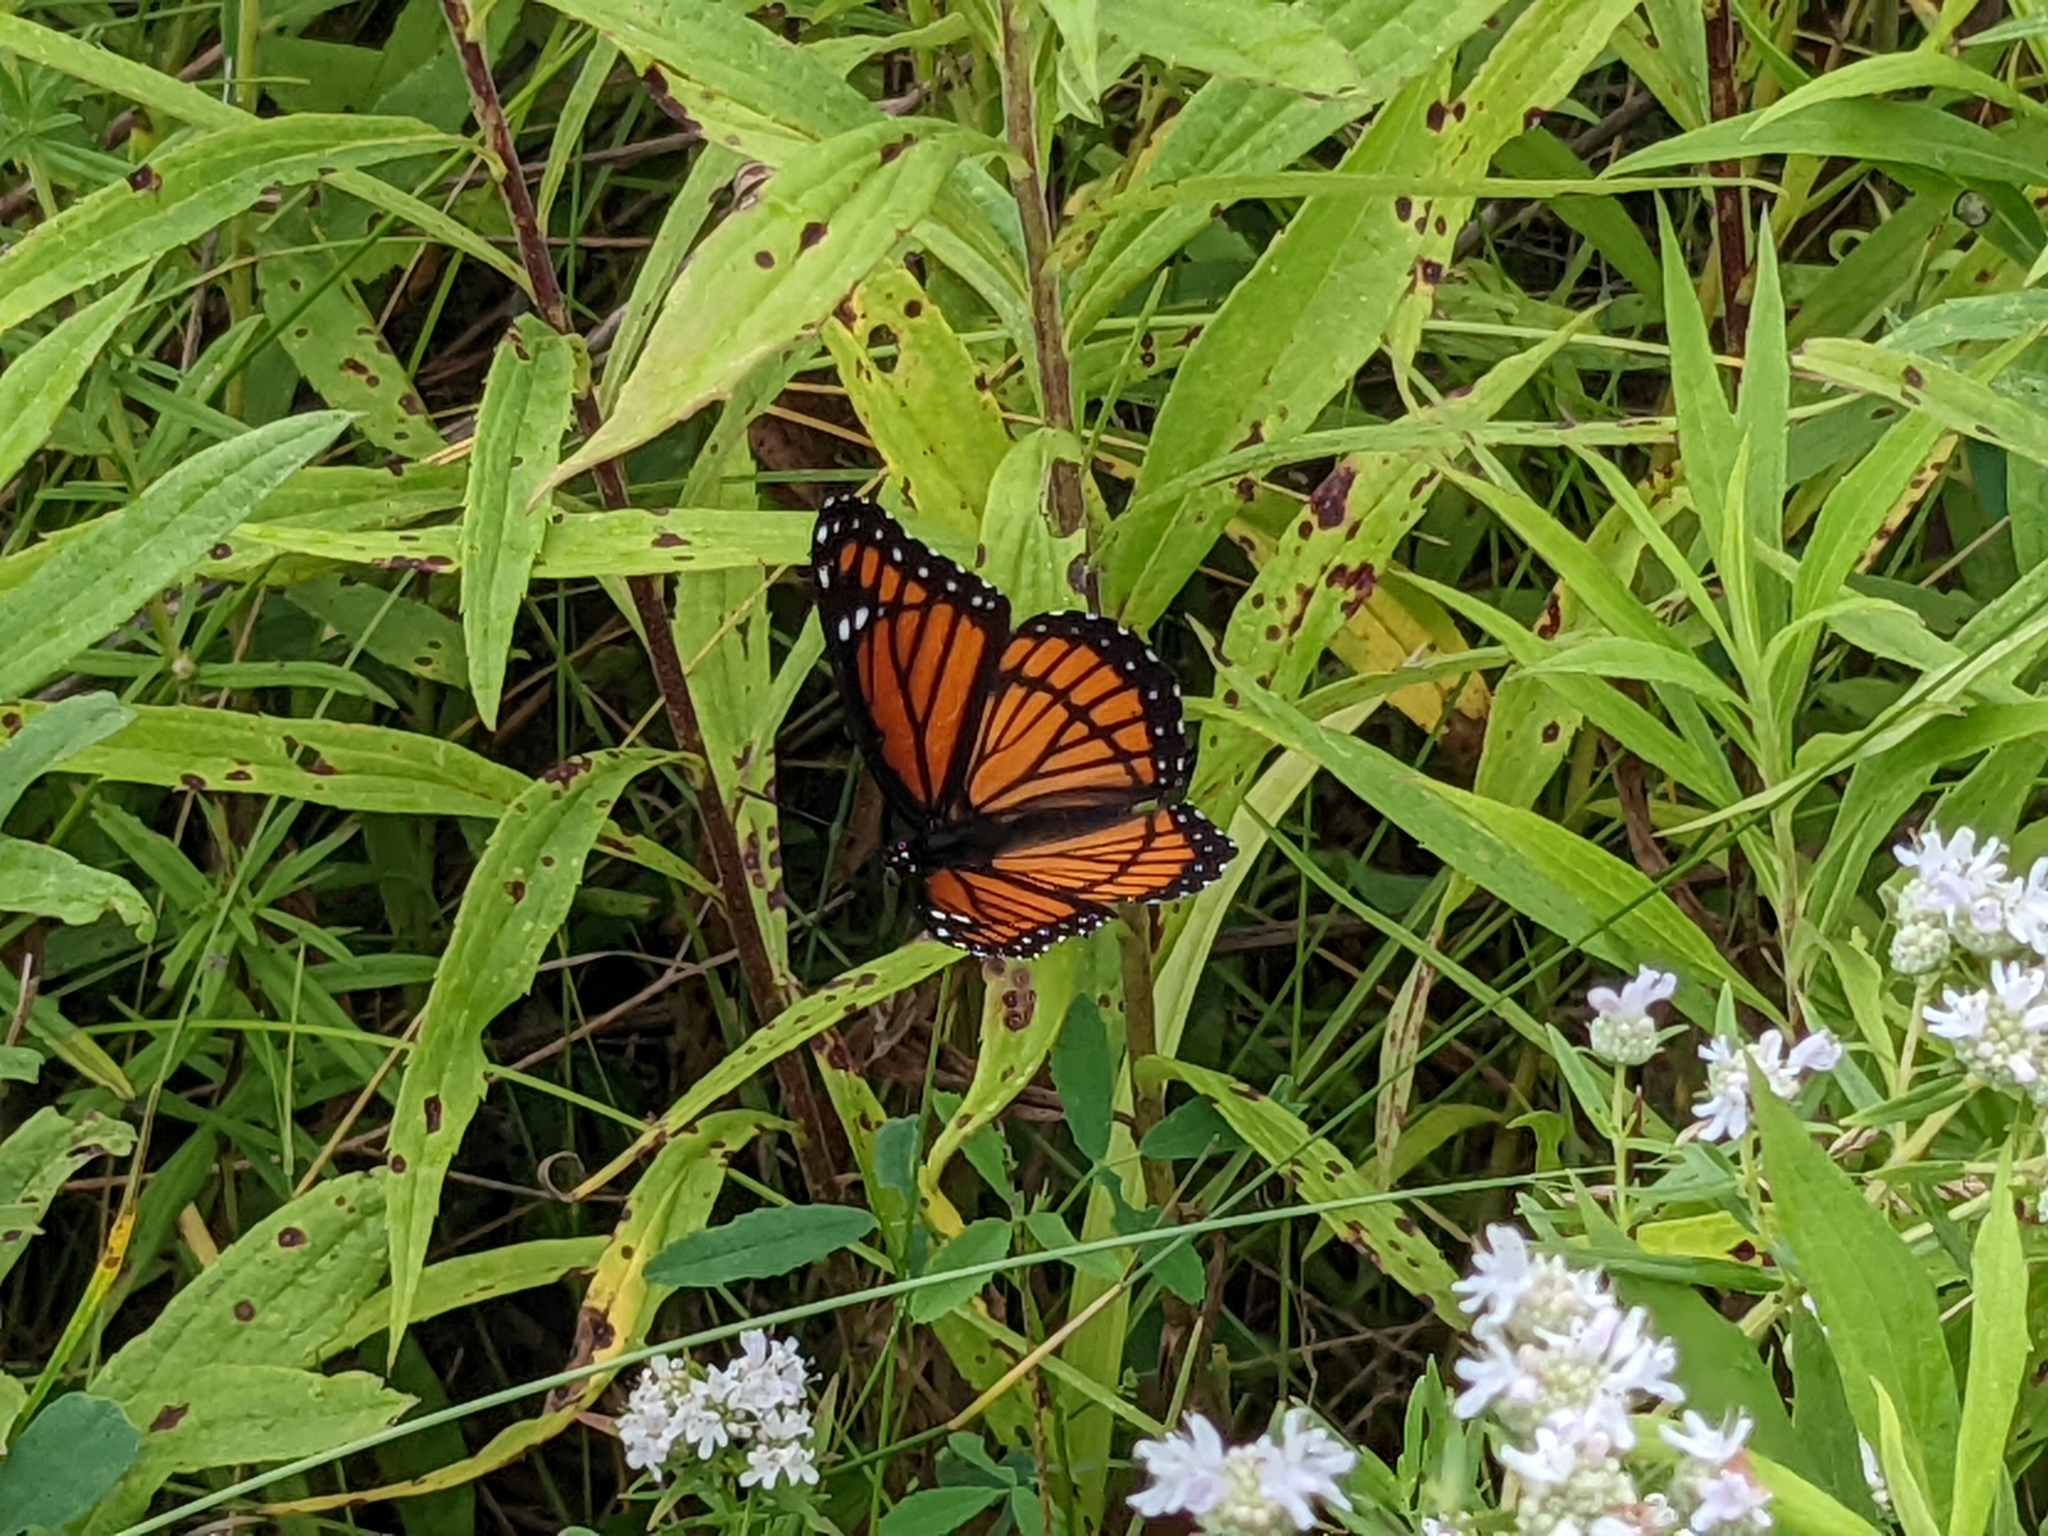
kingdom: Animalia
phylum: Arthropoda
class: Insecta
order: Lepidoptera
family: Nymphalidae
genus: Limenitis
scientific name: Limenitis archippus
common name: Viceroy
